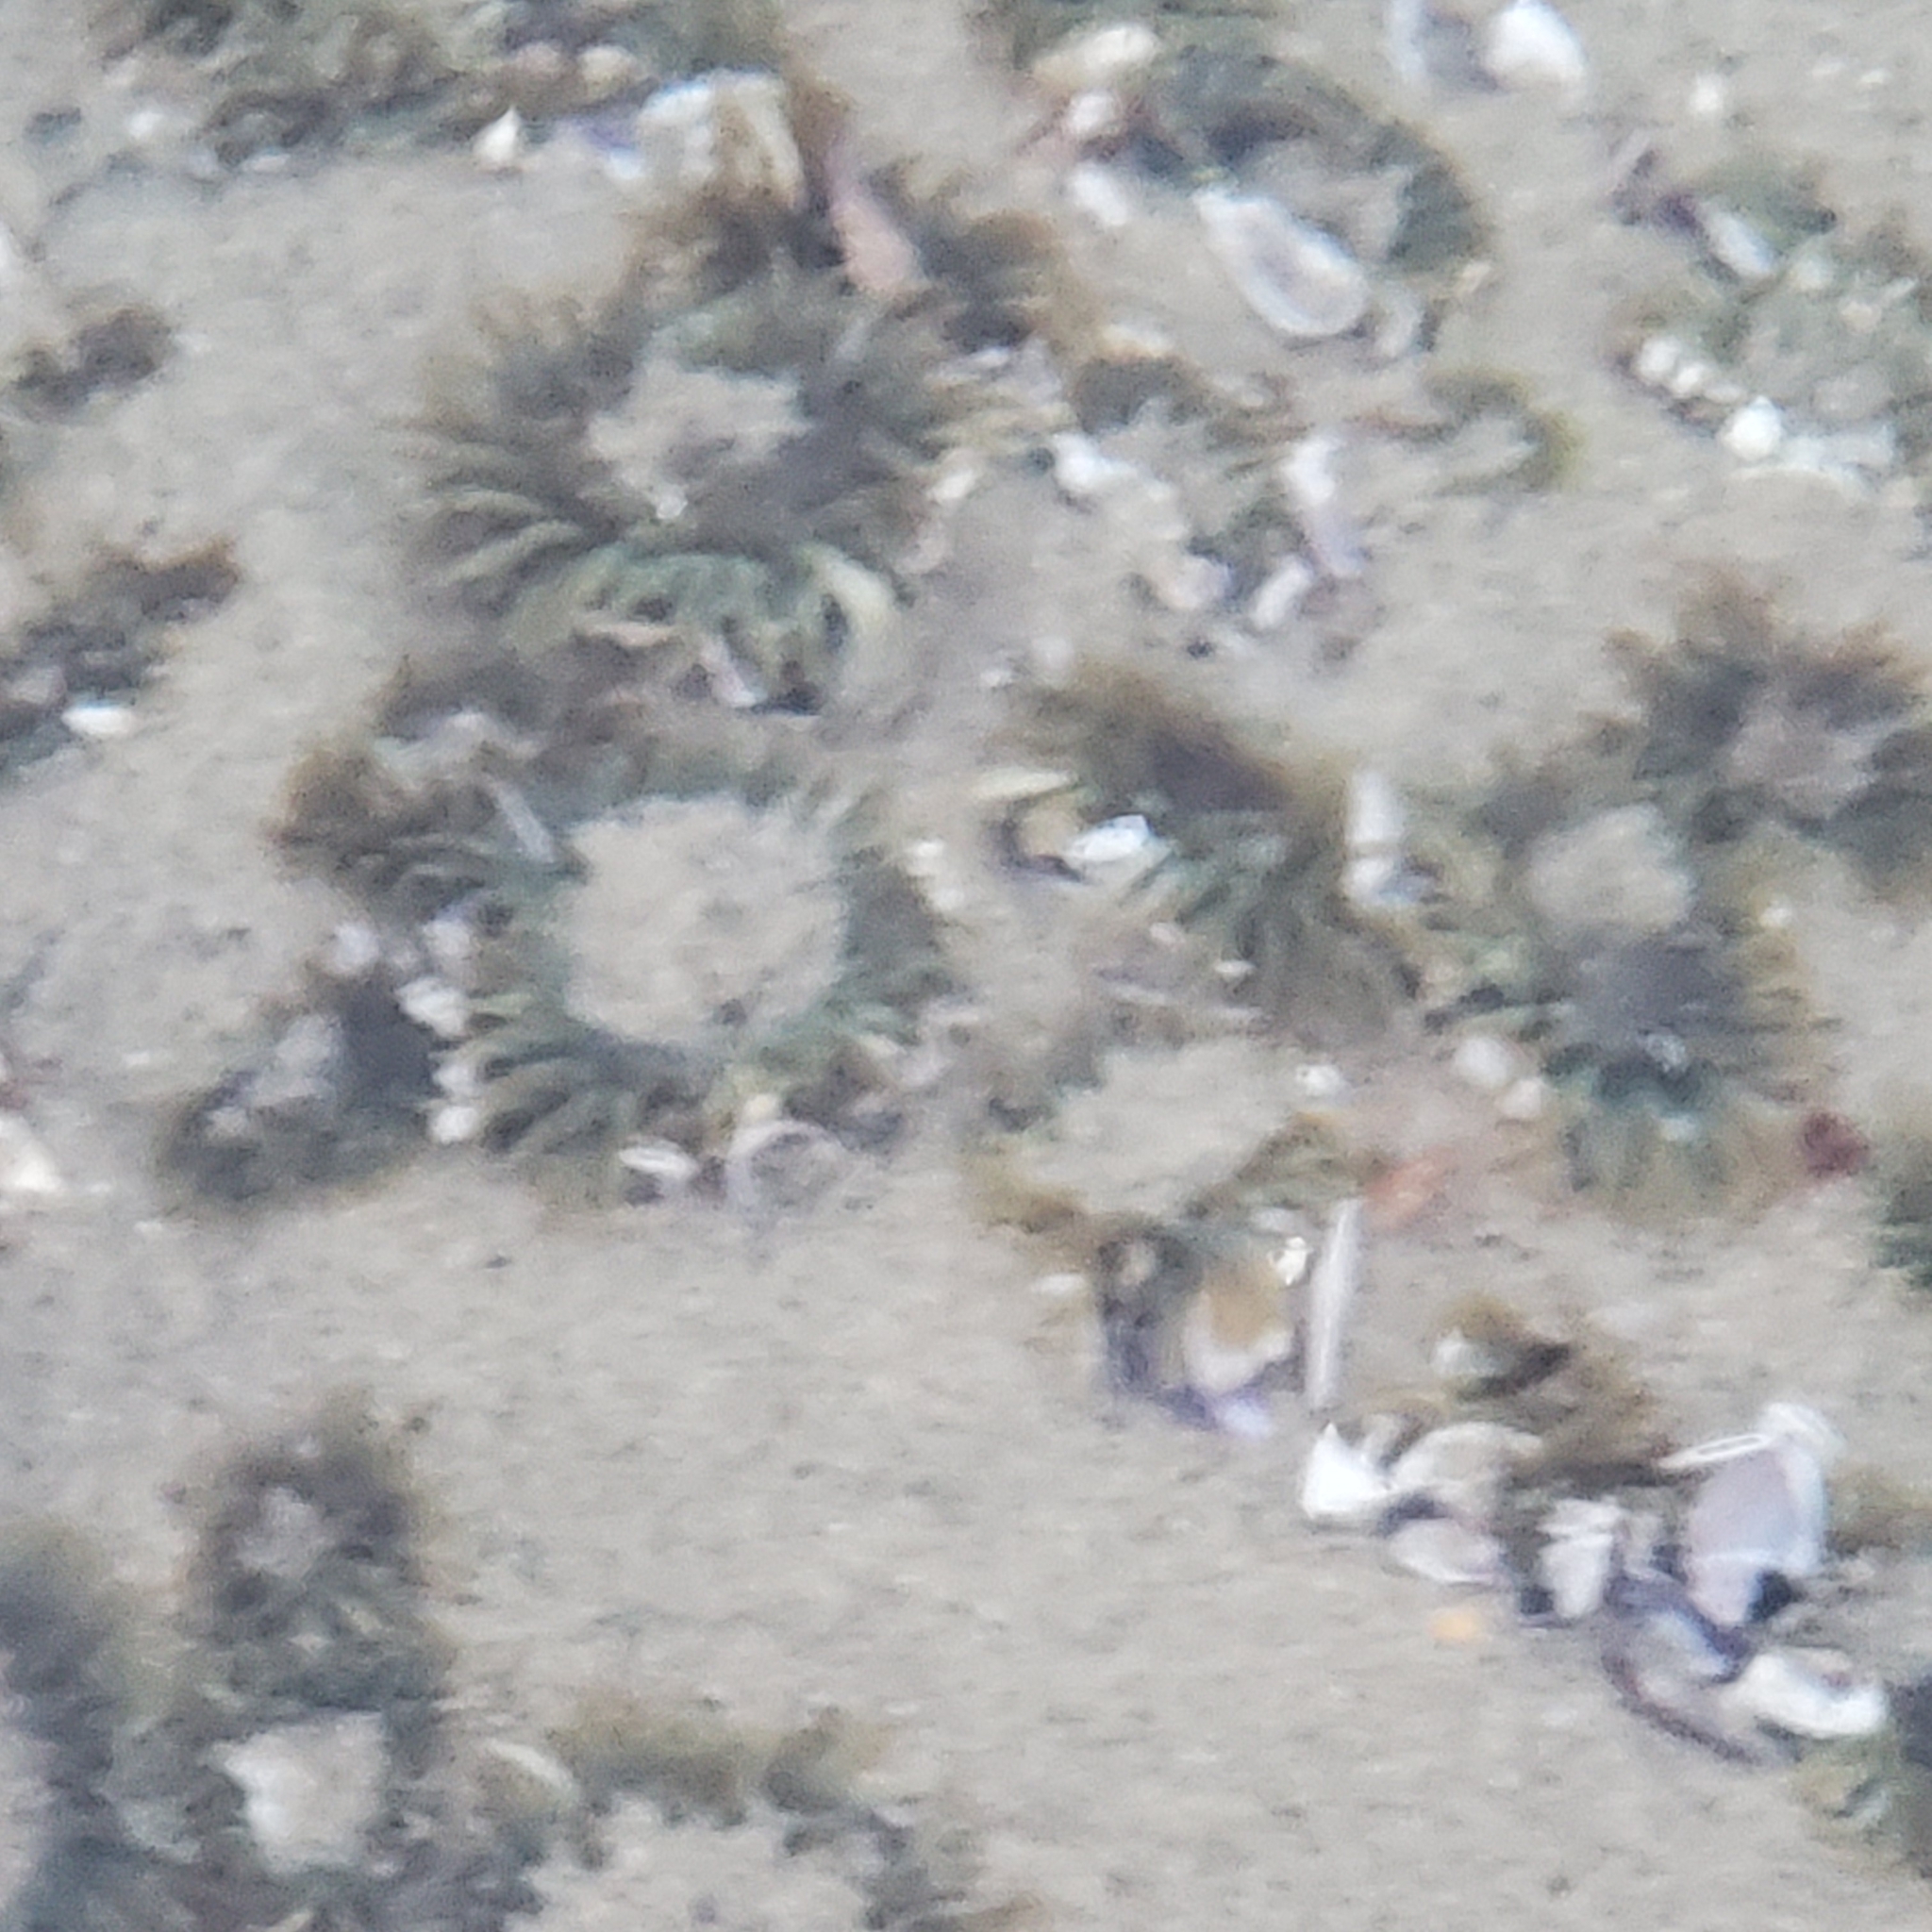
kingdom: Animalia
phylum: Cnidaria
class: Anthozoa
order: Actiniaria
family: Actiniidae
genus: Anthopleura
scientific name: Anthopleura elegantissima
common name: Clonal anemone
